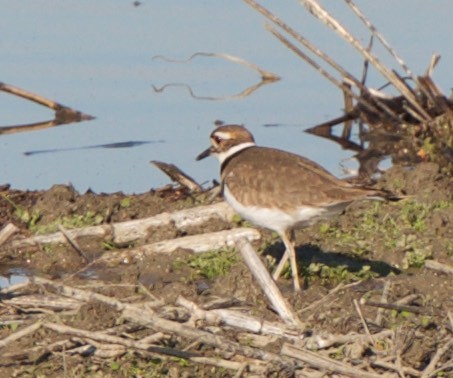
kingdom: Animalia
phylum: Chordata
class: Aves
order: Charadriiformes
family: Charadriidae
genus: Charadrius
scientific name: Charadrius vociferus
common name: Killdeer
